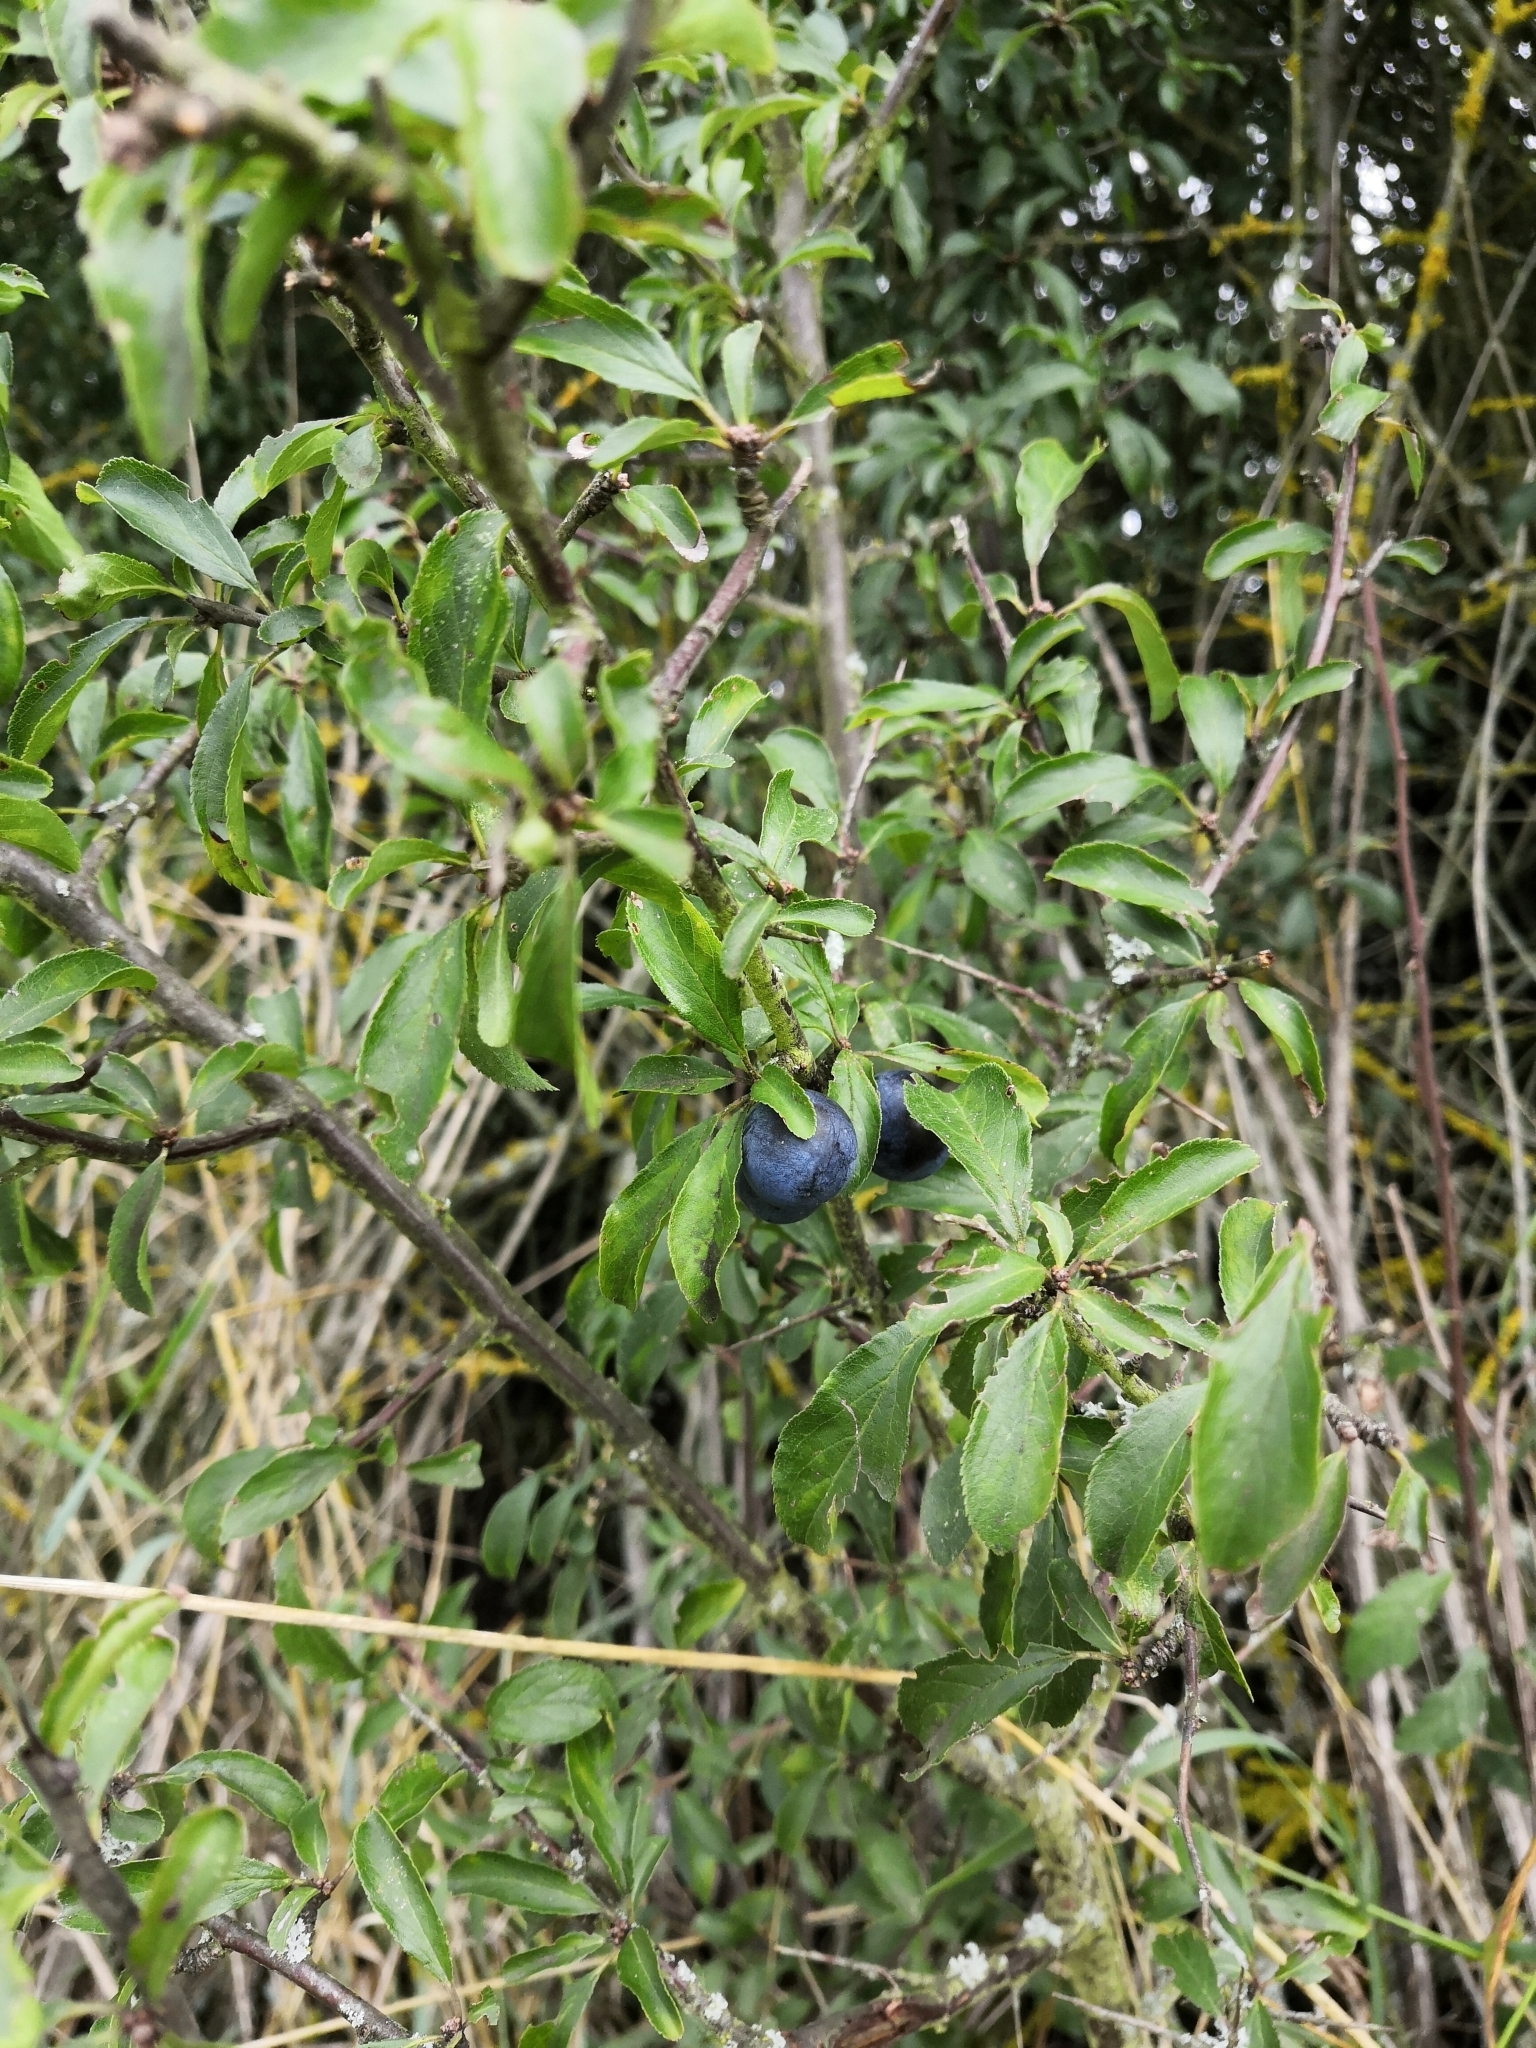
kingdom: Plantae
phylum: Tracheophyta
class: Magnoliopsida
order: Rosales
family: Rosaceae
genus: Prunus
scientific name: Prunus spinosa
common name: Blackthorn
